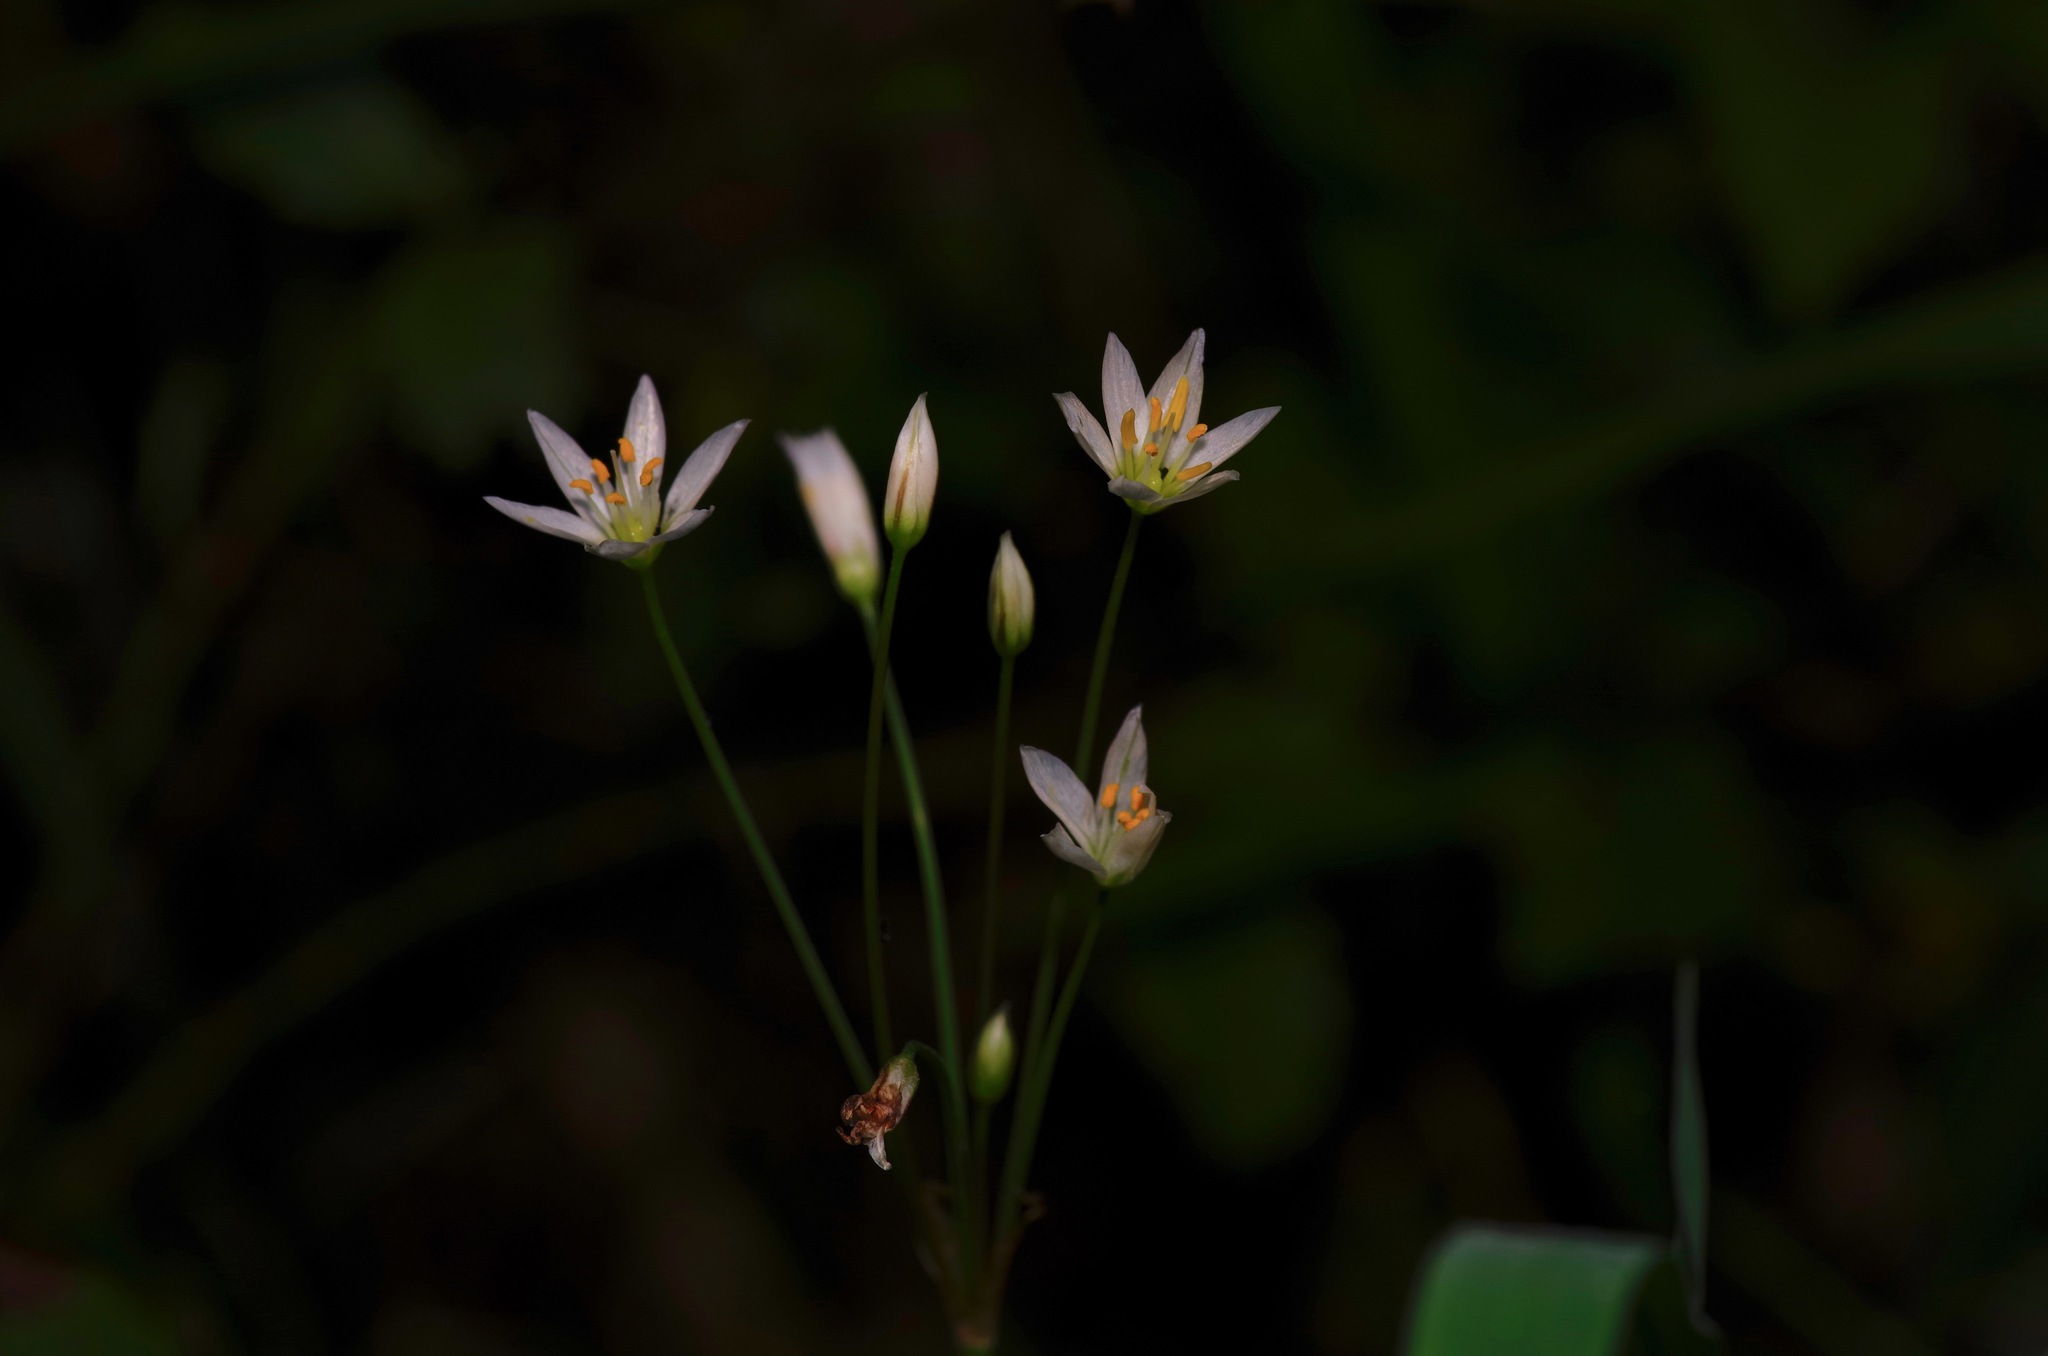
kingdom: Plantae
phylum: Tracheophyta
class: Liliopsida
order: Asparagales
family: Amaryllidaceae
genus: Nothoscordum
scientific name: Nothoscordum bivalve
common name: Crow-poison
